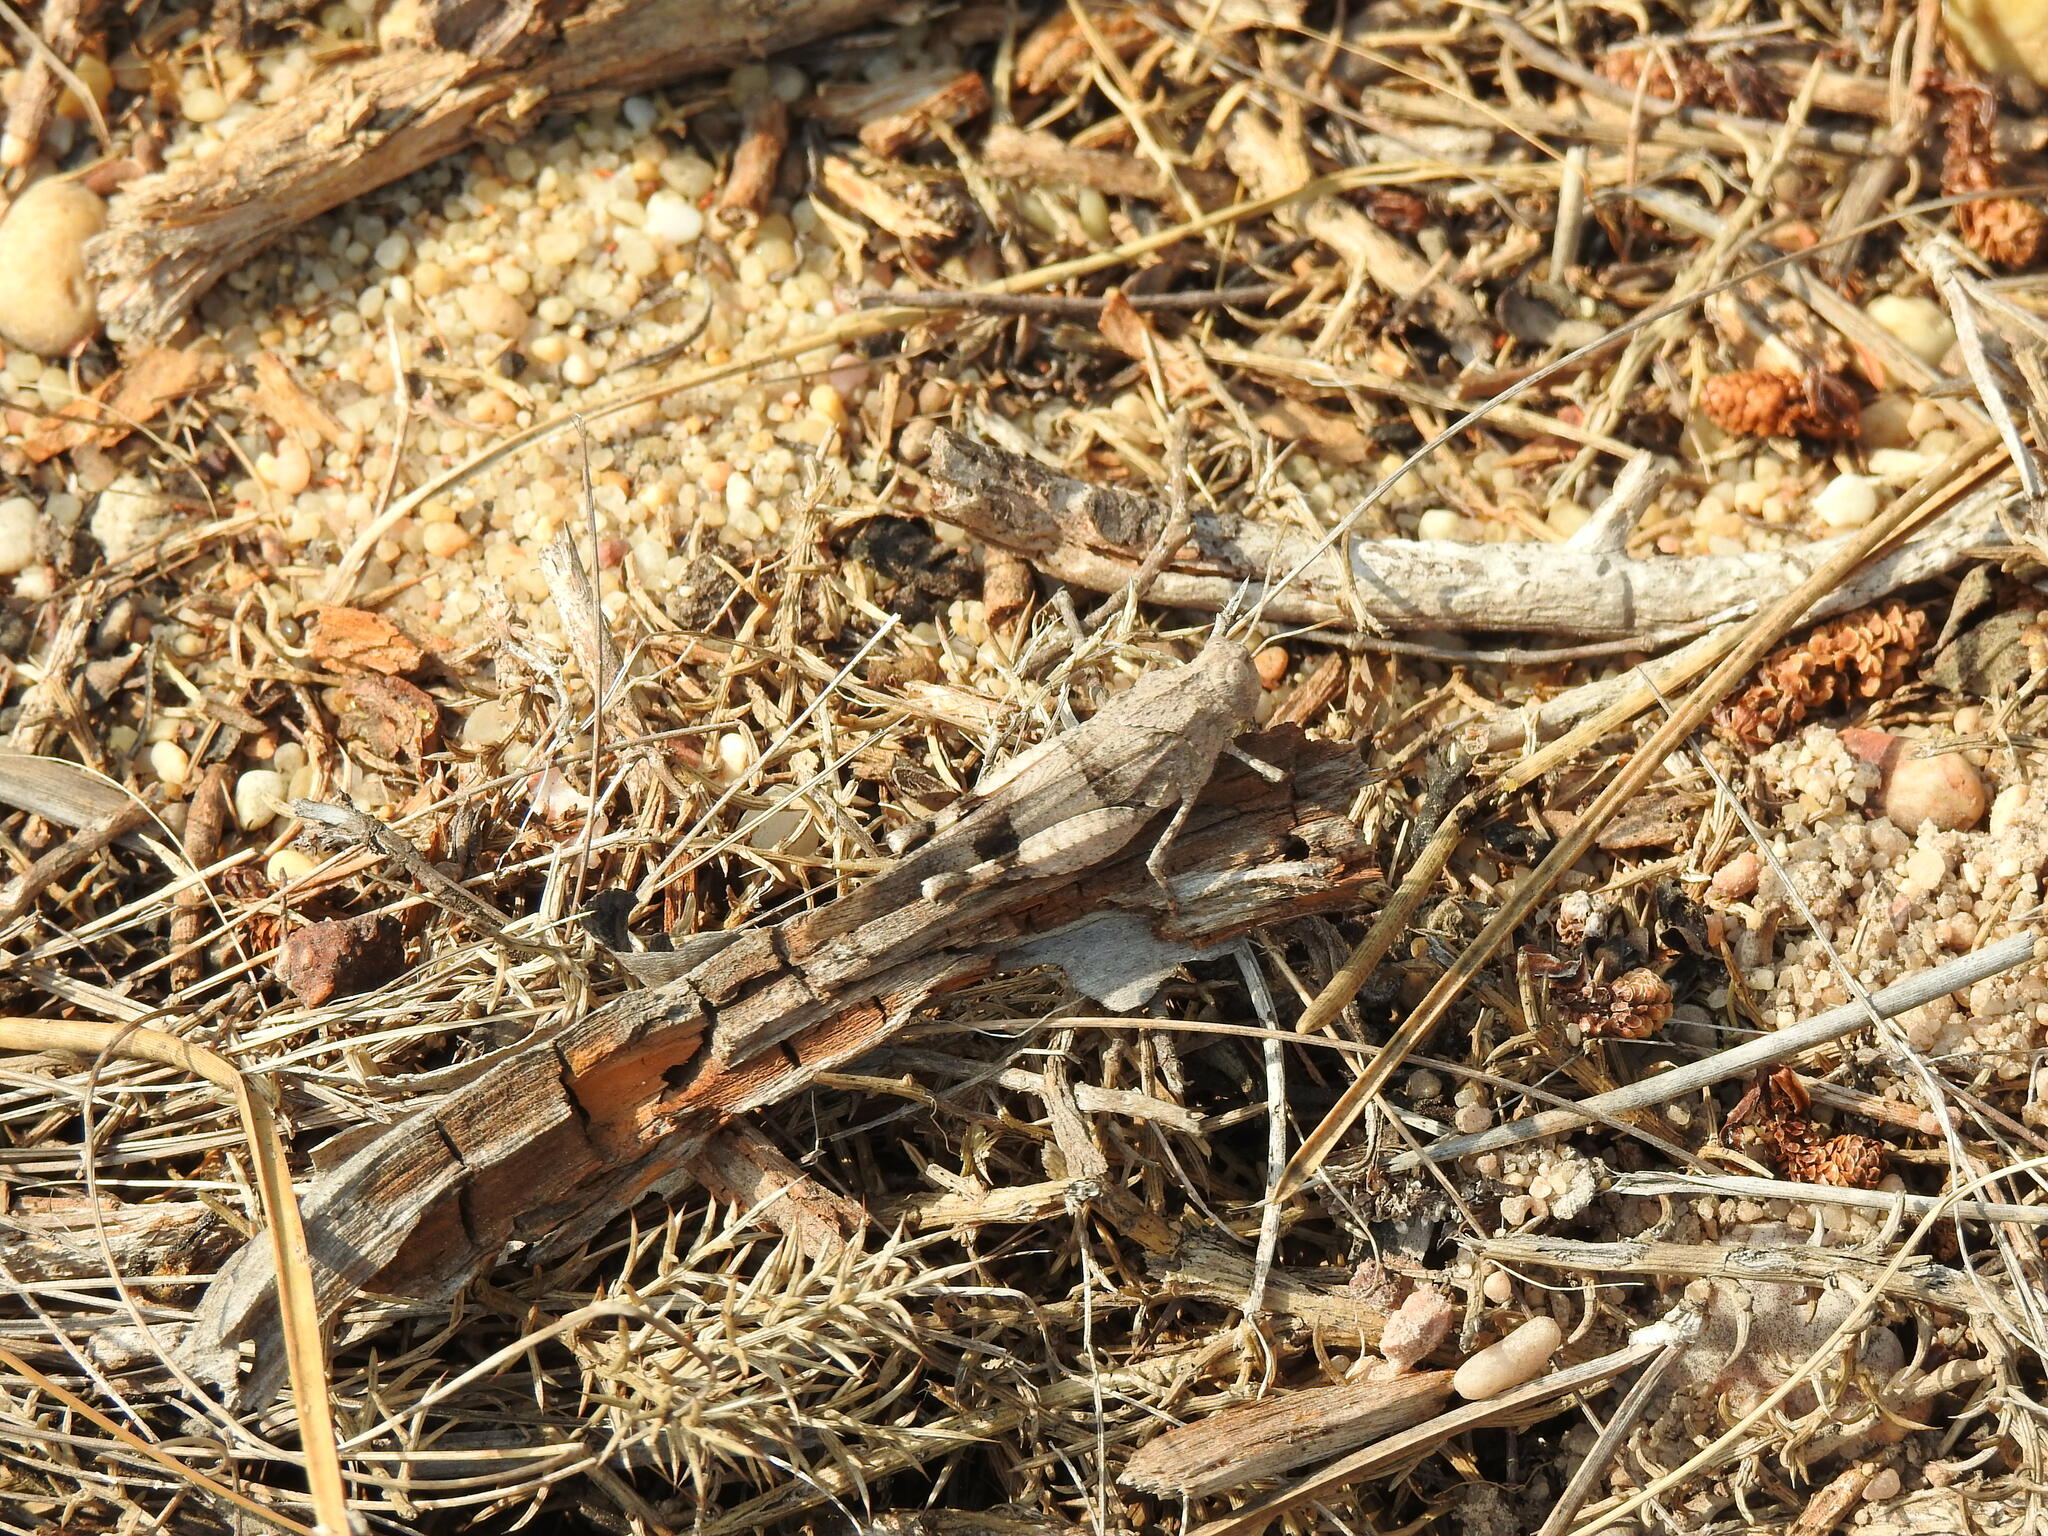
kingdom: Animalia
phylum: Arthropoda
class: Insecta
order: Orthoptera
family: Acrididae
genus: Oedipoda
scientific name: Oedipoda caerulescens
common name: Blue-winged grasshopper
